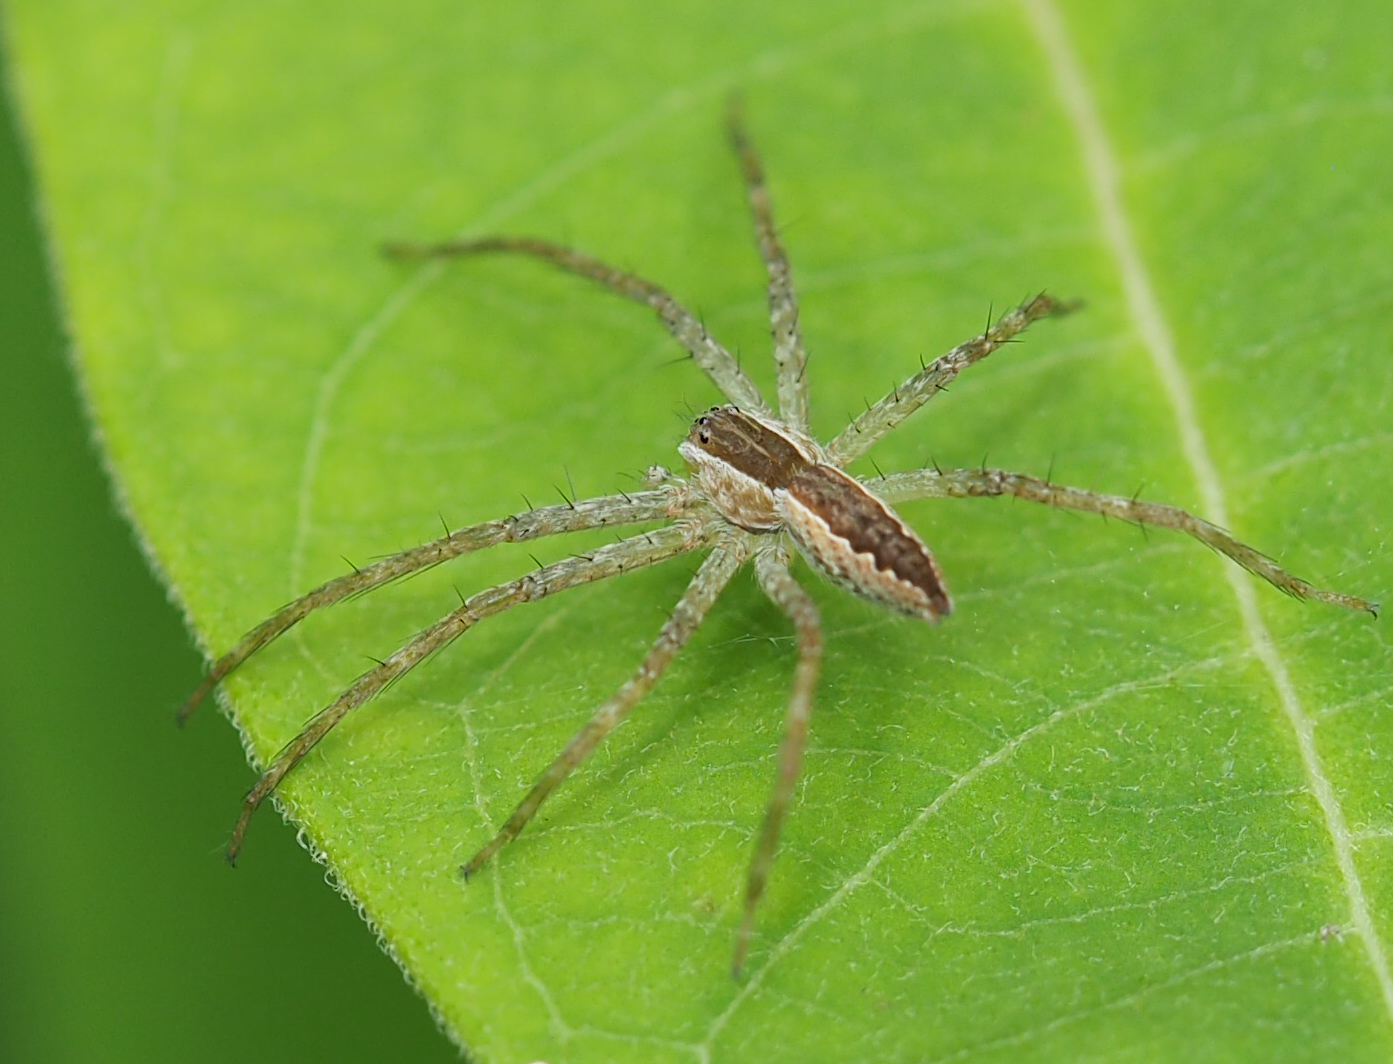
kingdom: Animalia
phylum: Arthropoda
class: Arachnida
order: Araneae
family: Pisauridae
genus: Pisaurina
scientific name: Pisaurina mira
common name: American nursery web spider
